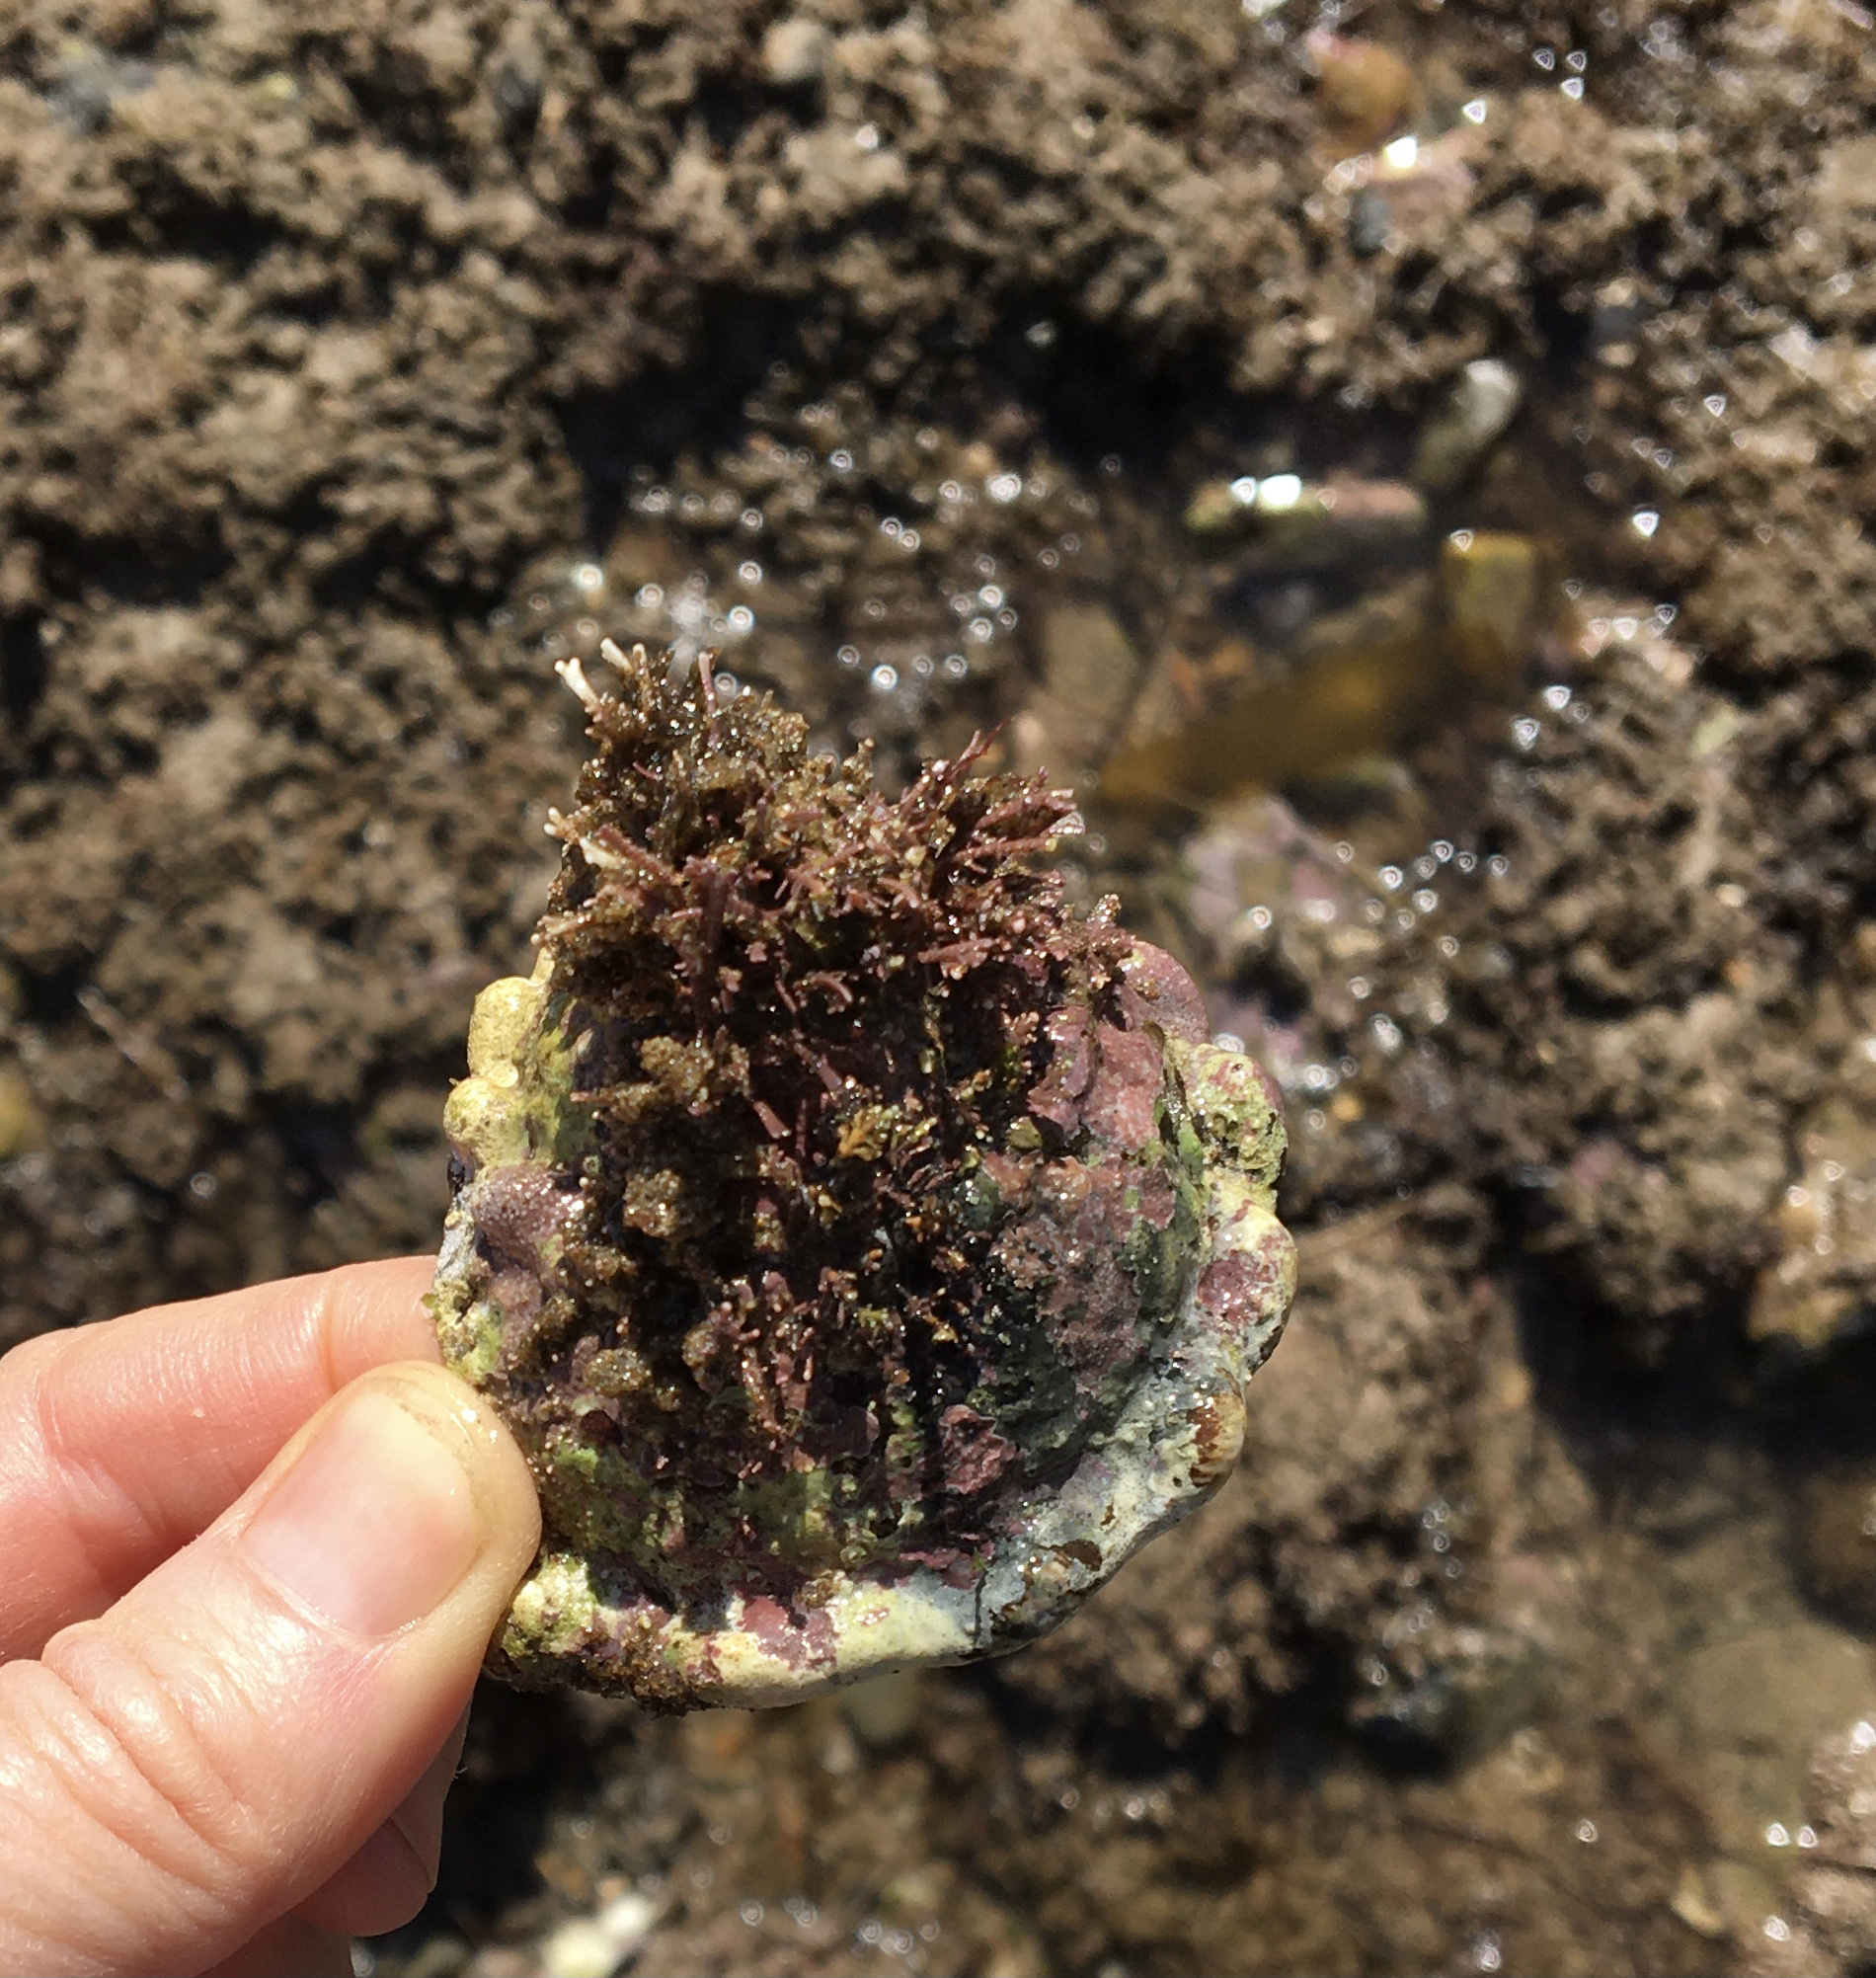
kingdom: Animalia
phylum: Mollusca
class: Gastropoda
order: Trochida
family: Turbinidae
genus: Megastraea
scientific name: Megastraea undosa
